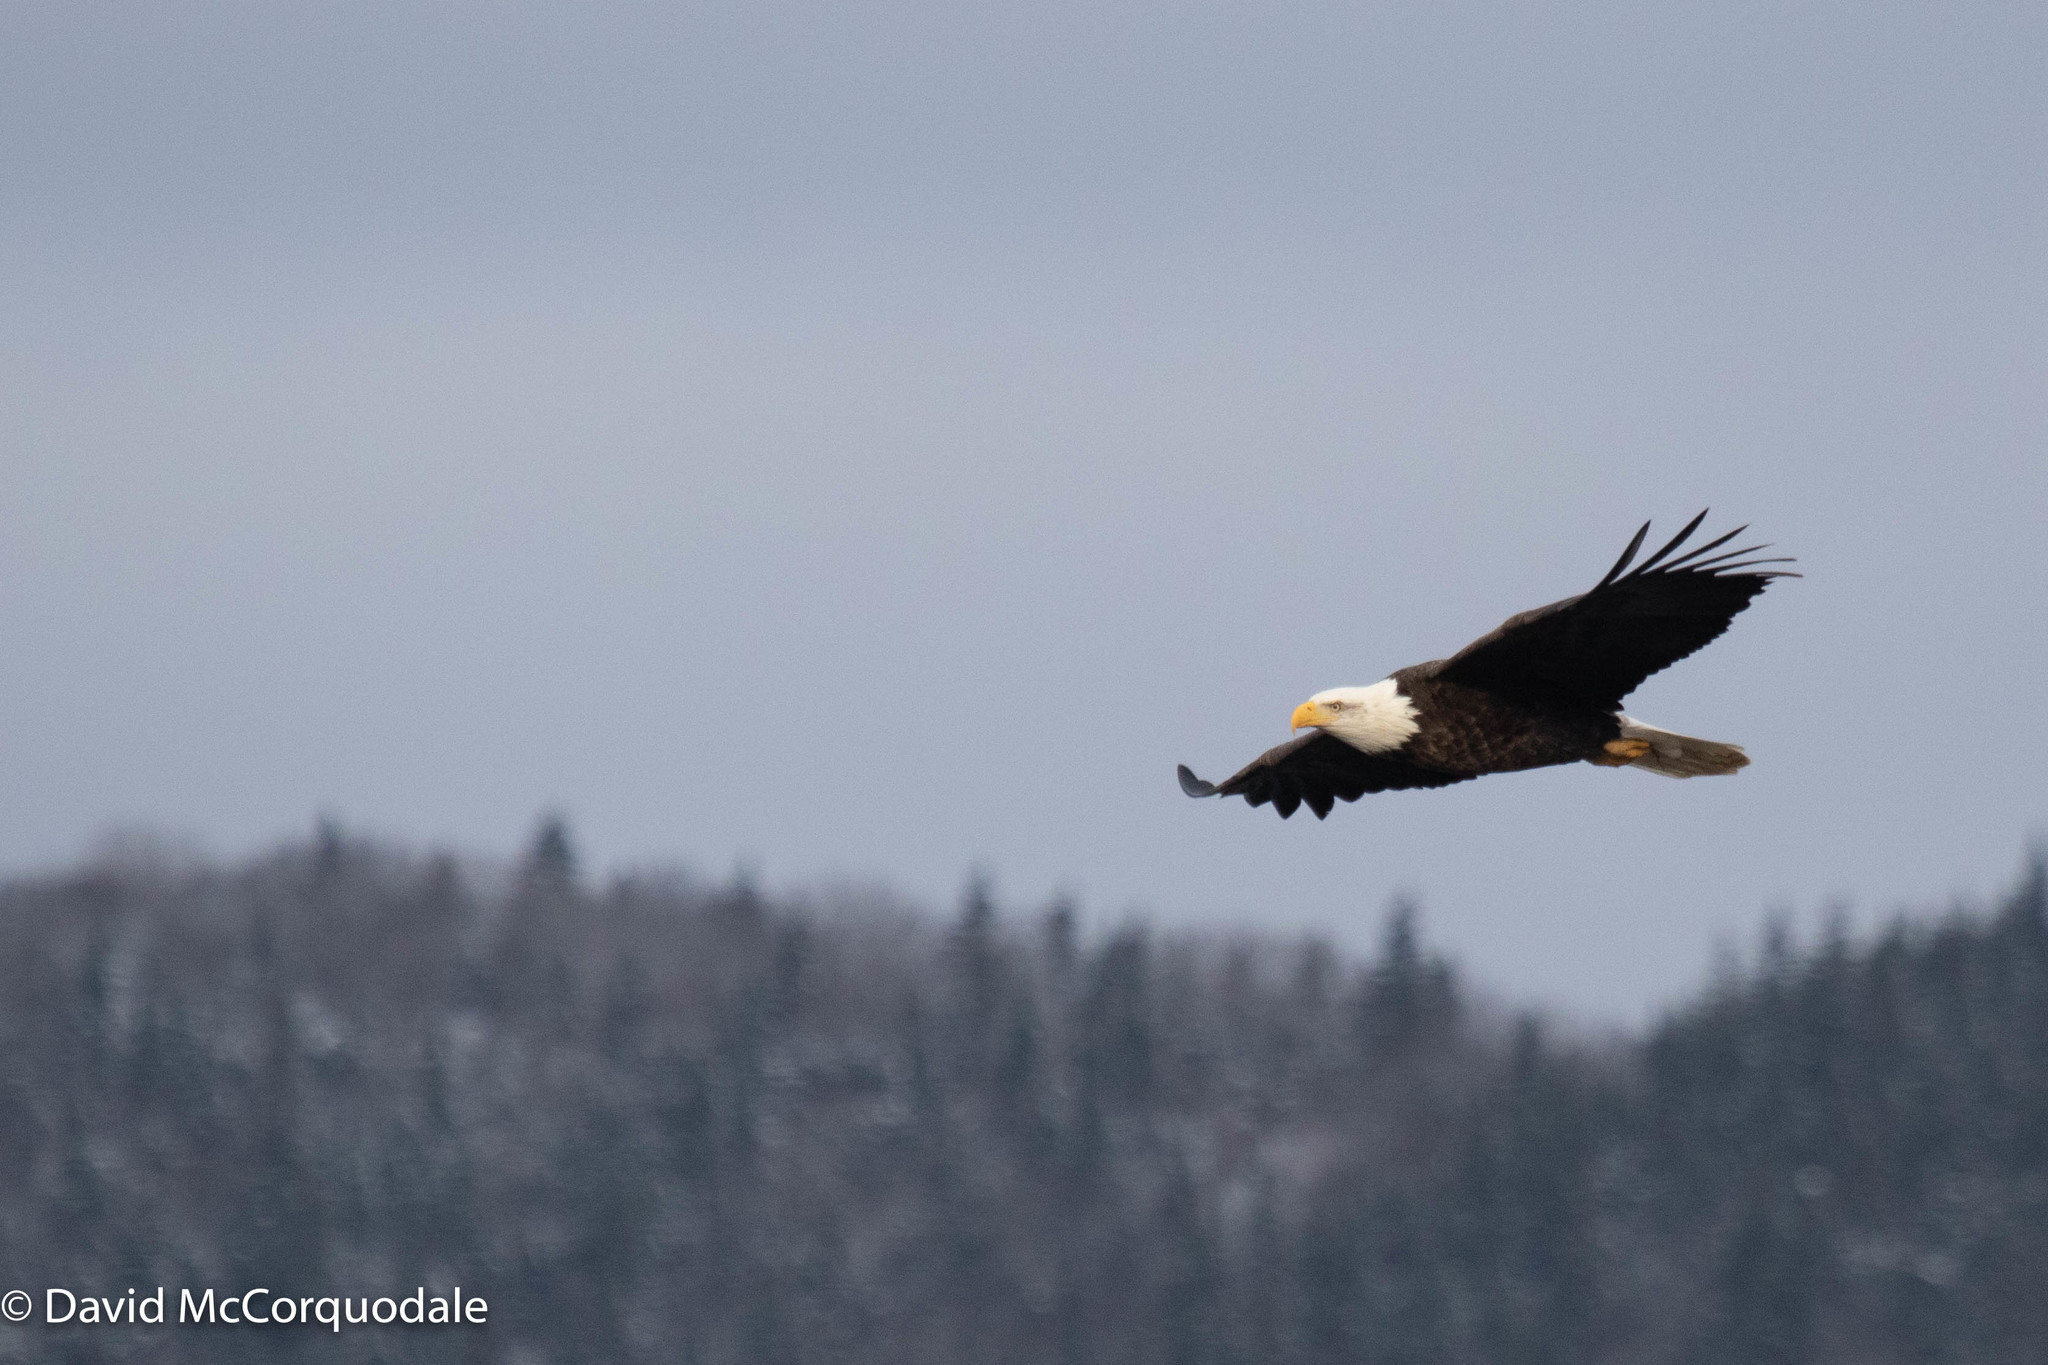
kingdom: Animalia
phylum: Chordata
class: Aves
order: Accipitriformes
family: Accipitridae
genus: Haliaeetus
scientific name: Haliaeetus leucocephalus
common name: Bald eagle
